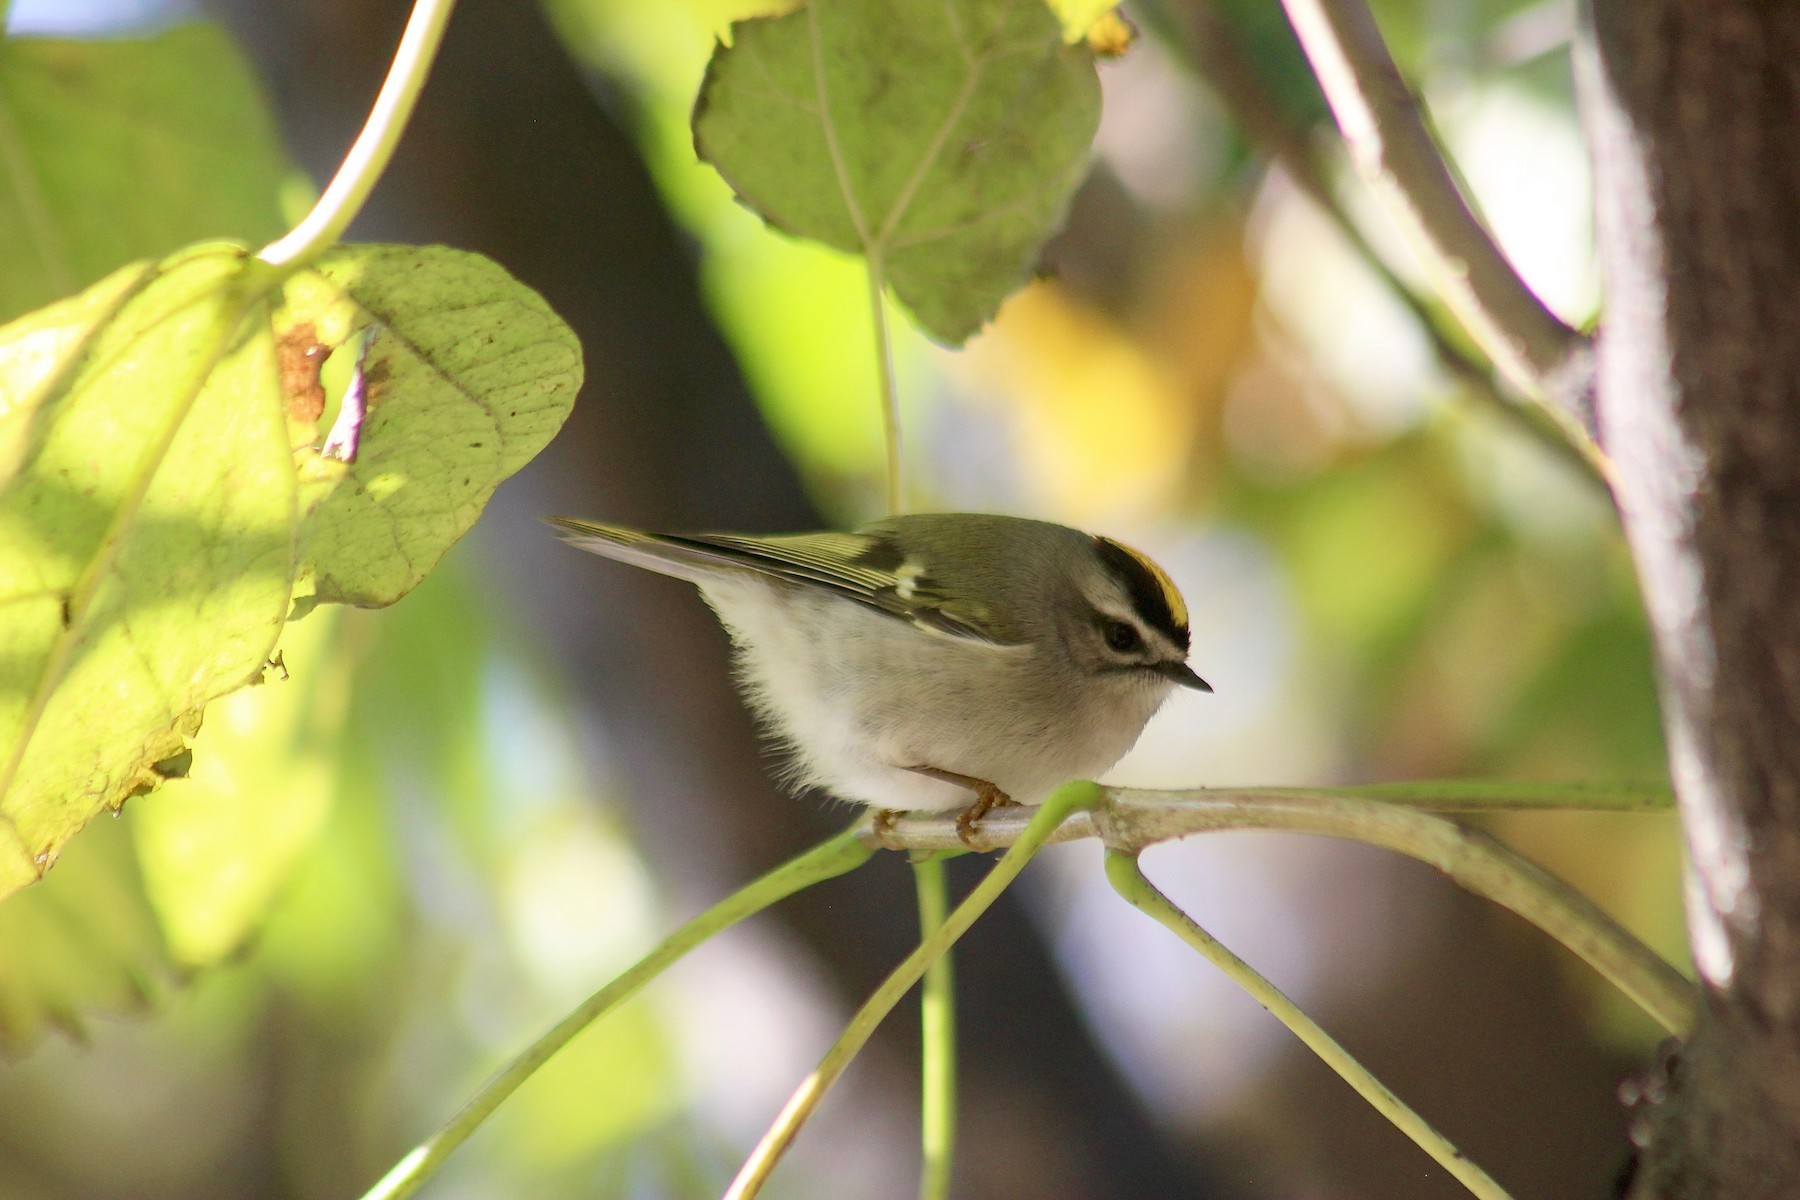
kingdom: Animalia
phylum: Chordata
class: Aves
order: Passeriformes
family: Regulidae
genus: Regulus
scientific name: Regulus satrapa
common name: Golden-crowned kinglet
